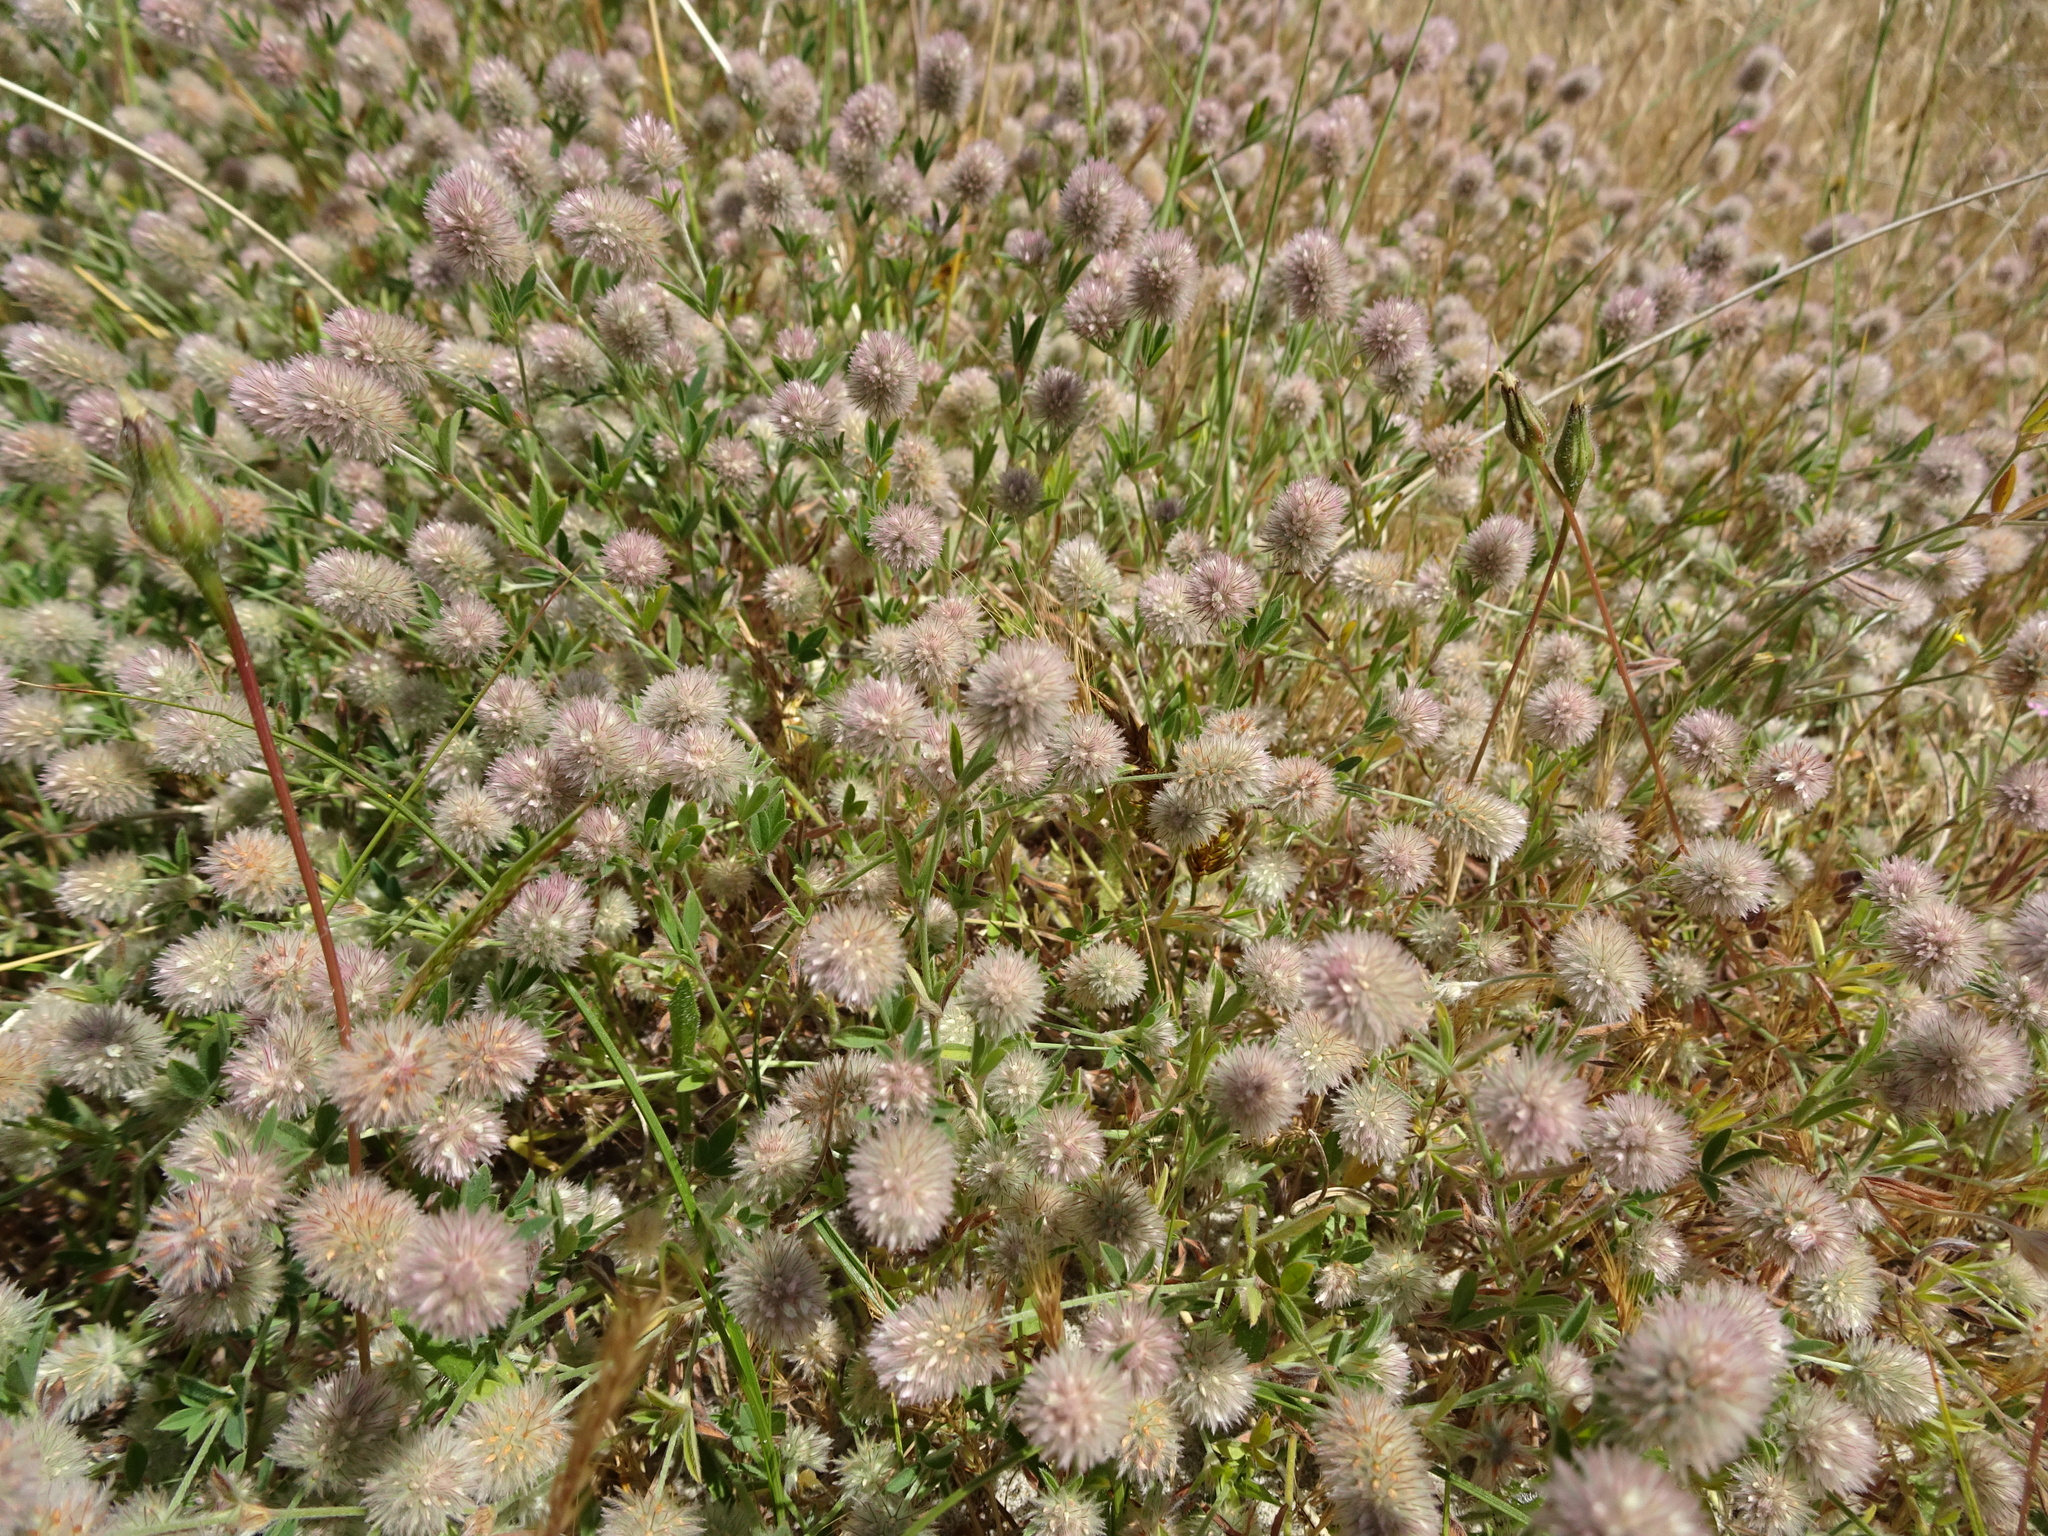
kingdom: Plantae
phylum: Tracheophyta
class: Magnoliopsida
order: Fabales
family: Fabaceae
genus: Trifolium
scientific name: Trifolium arvense
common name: Hare's-foot clover
